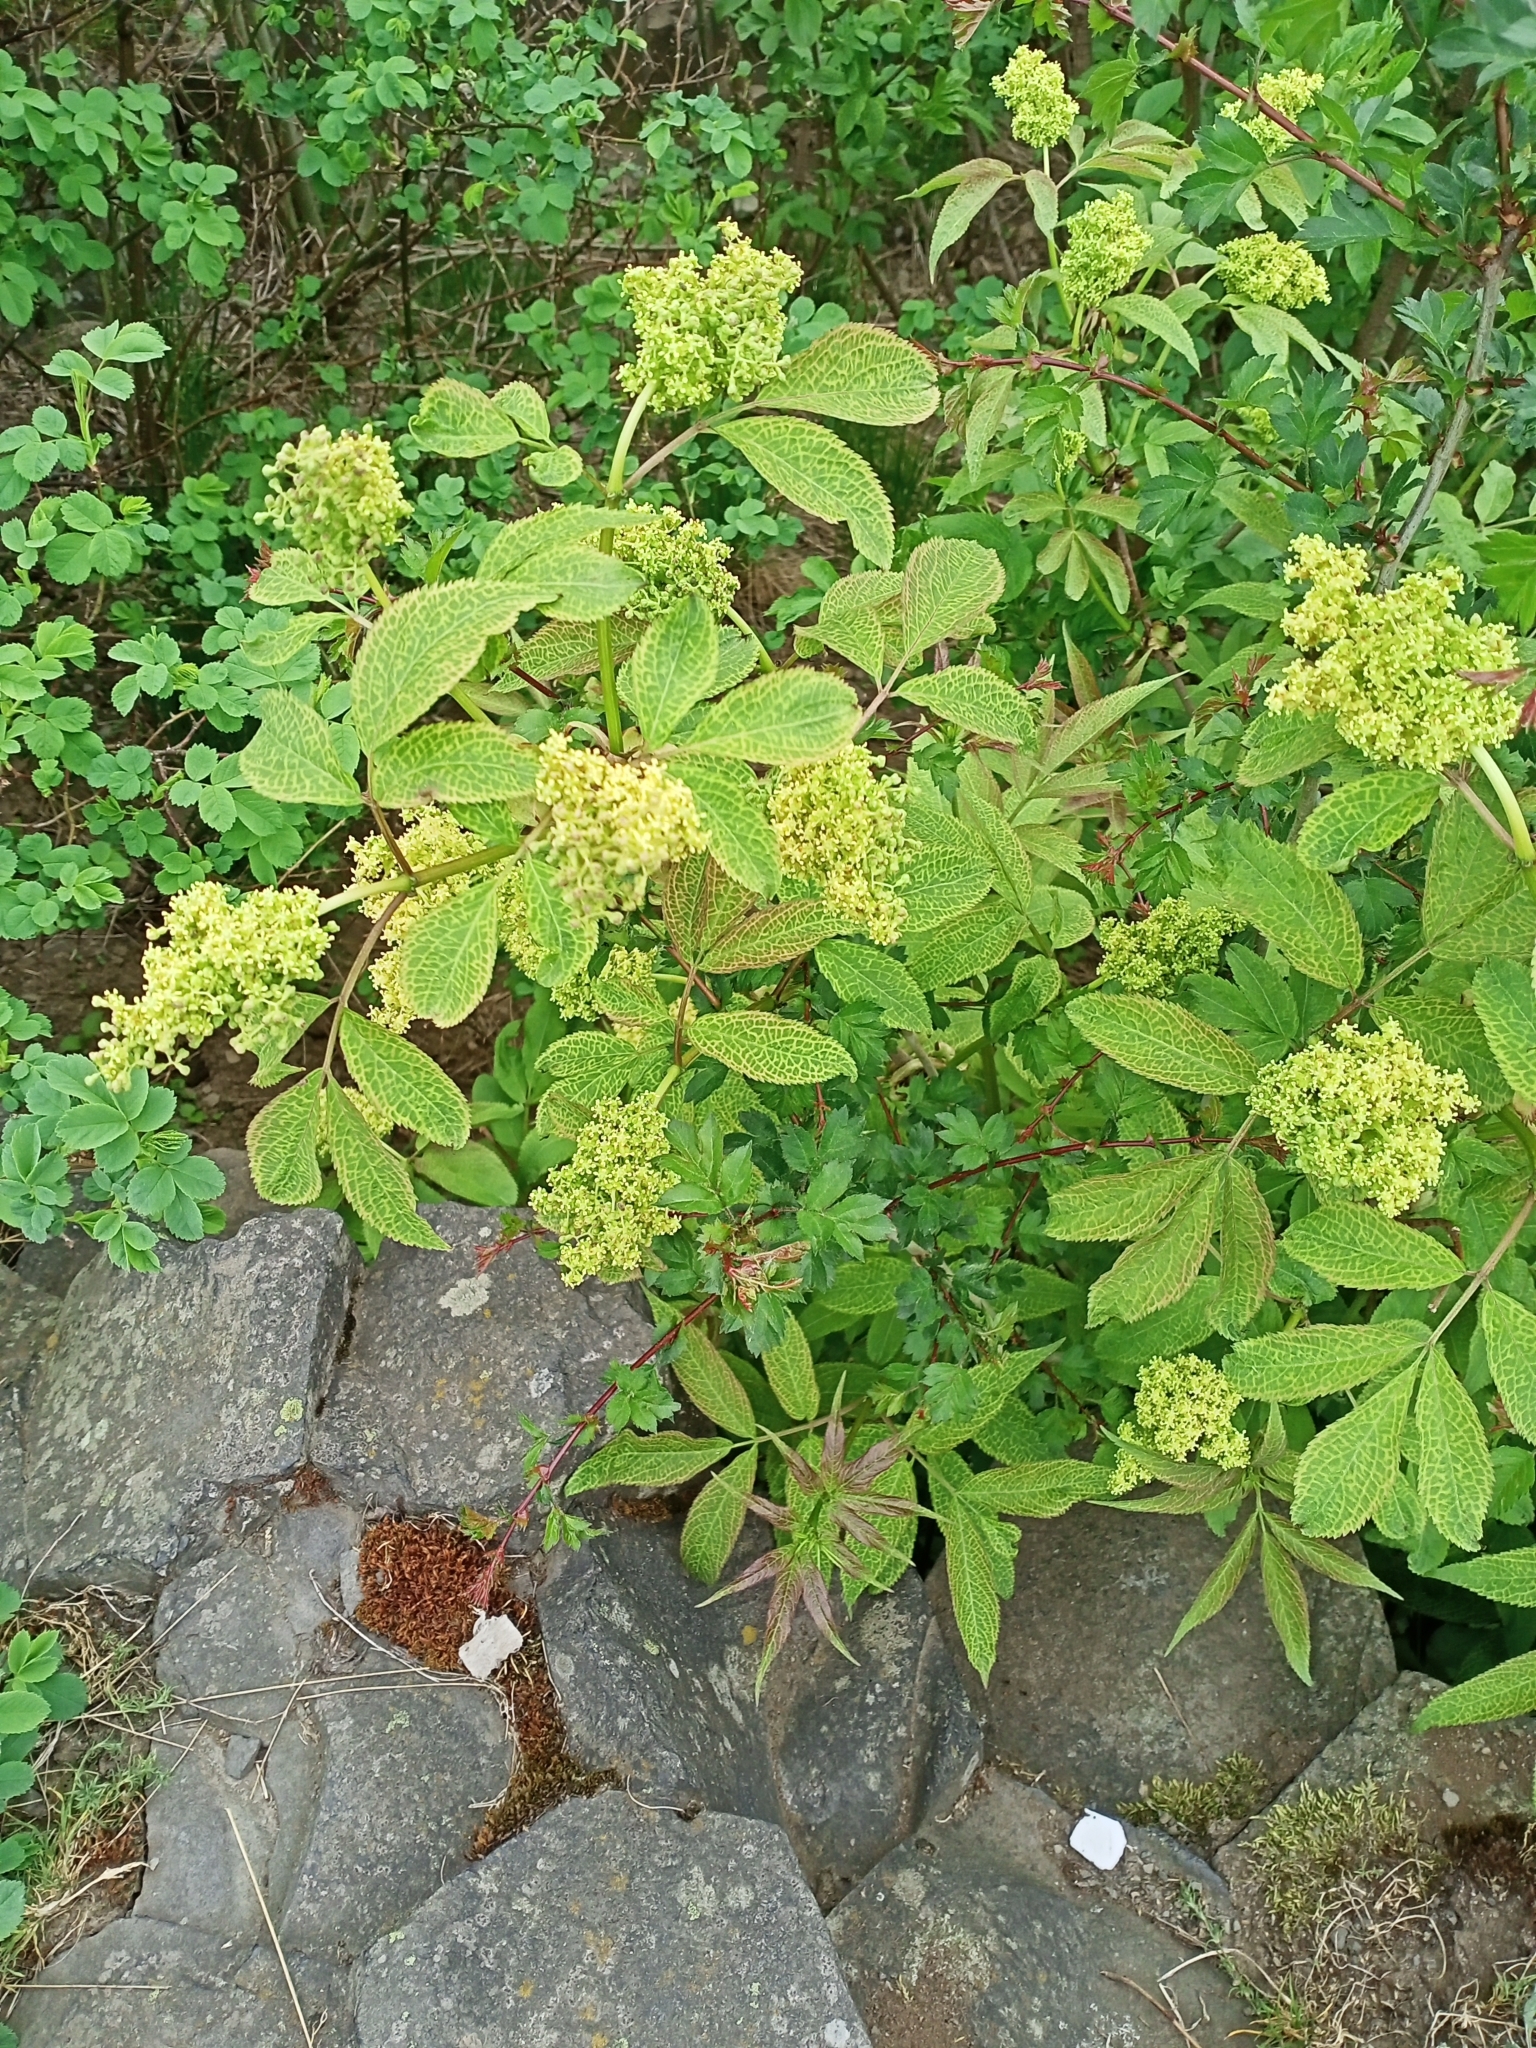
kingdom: Plantae
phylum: Tracheophyta
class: Magnoliopsida
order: Dipsacales
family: Viburnaceae
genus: Sambucus
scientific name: Sambucus racemosa
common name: Red-berried elder
